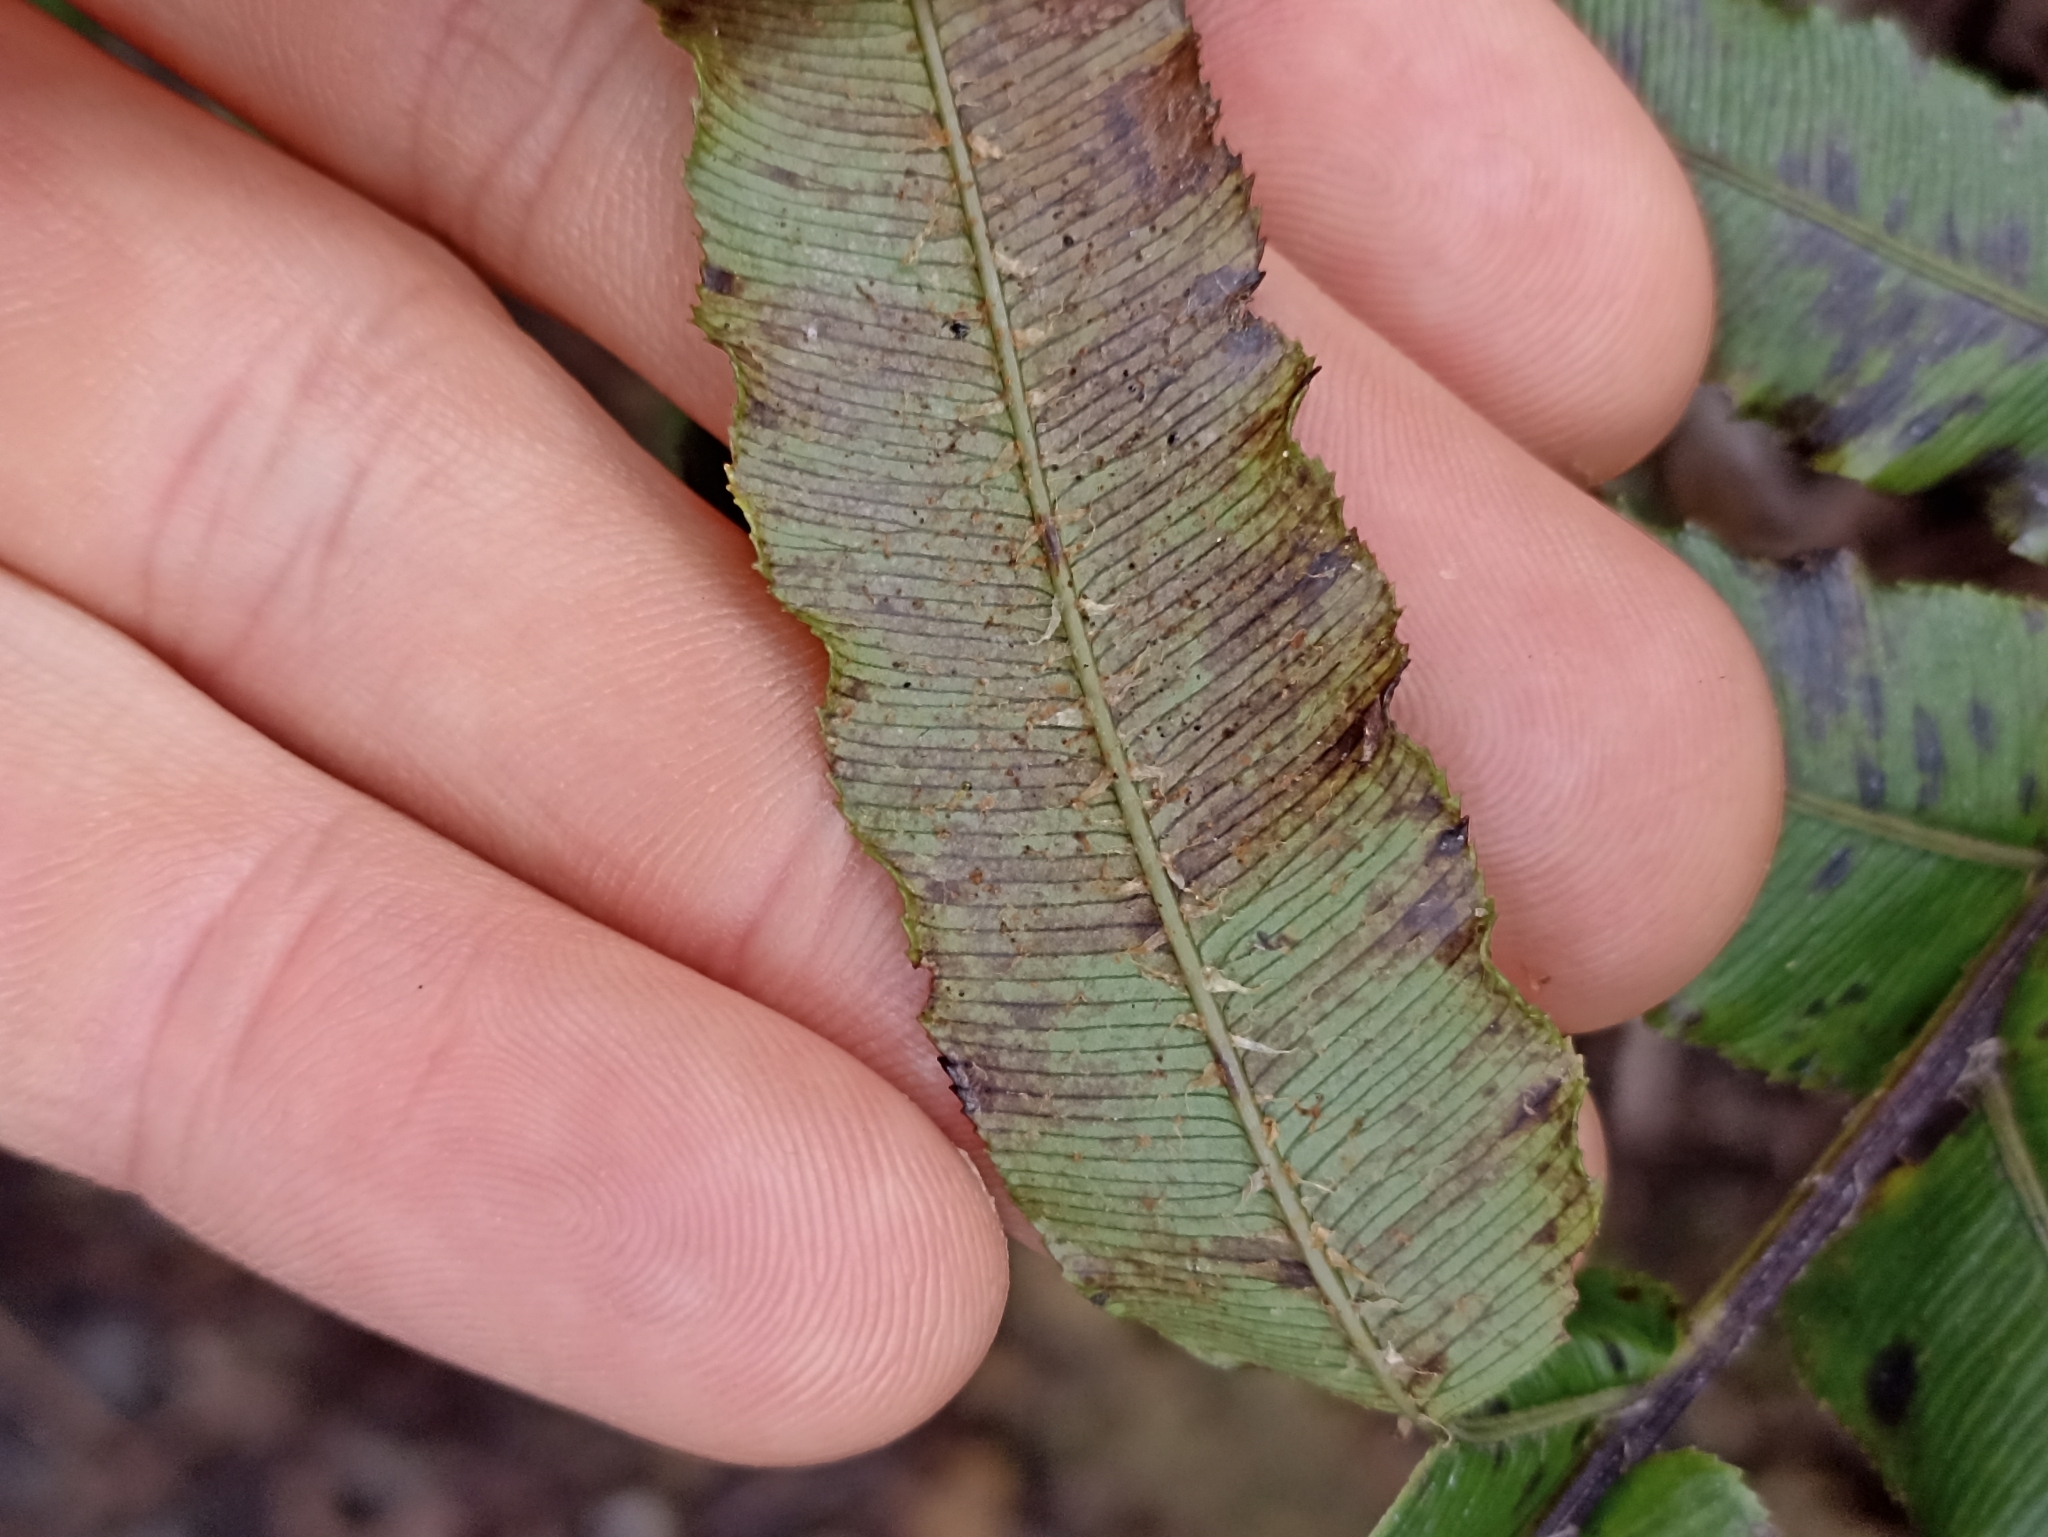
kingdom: Plantae
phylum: Tracheophyta
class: Polypodiopsida
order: Polypodiales
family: Blechnaceae
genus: Parablechnum
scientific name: Parablechnum novae-zelandiae
